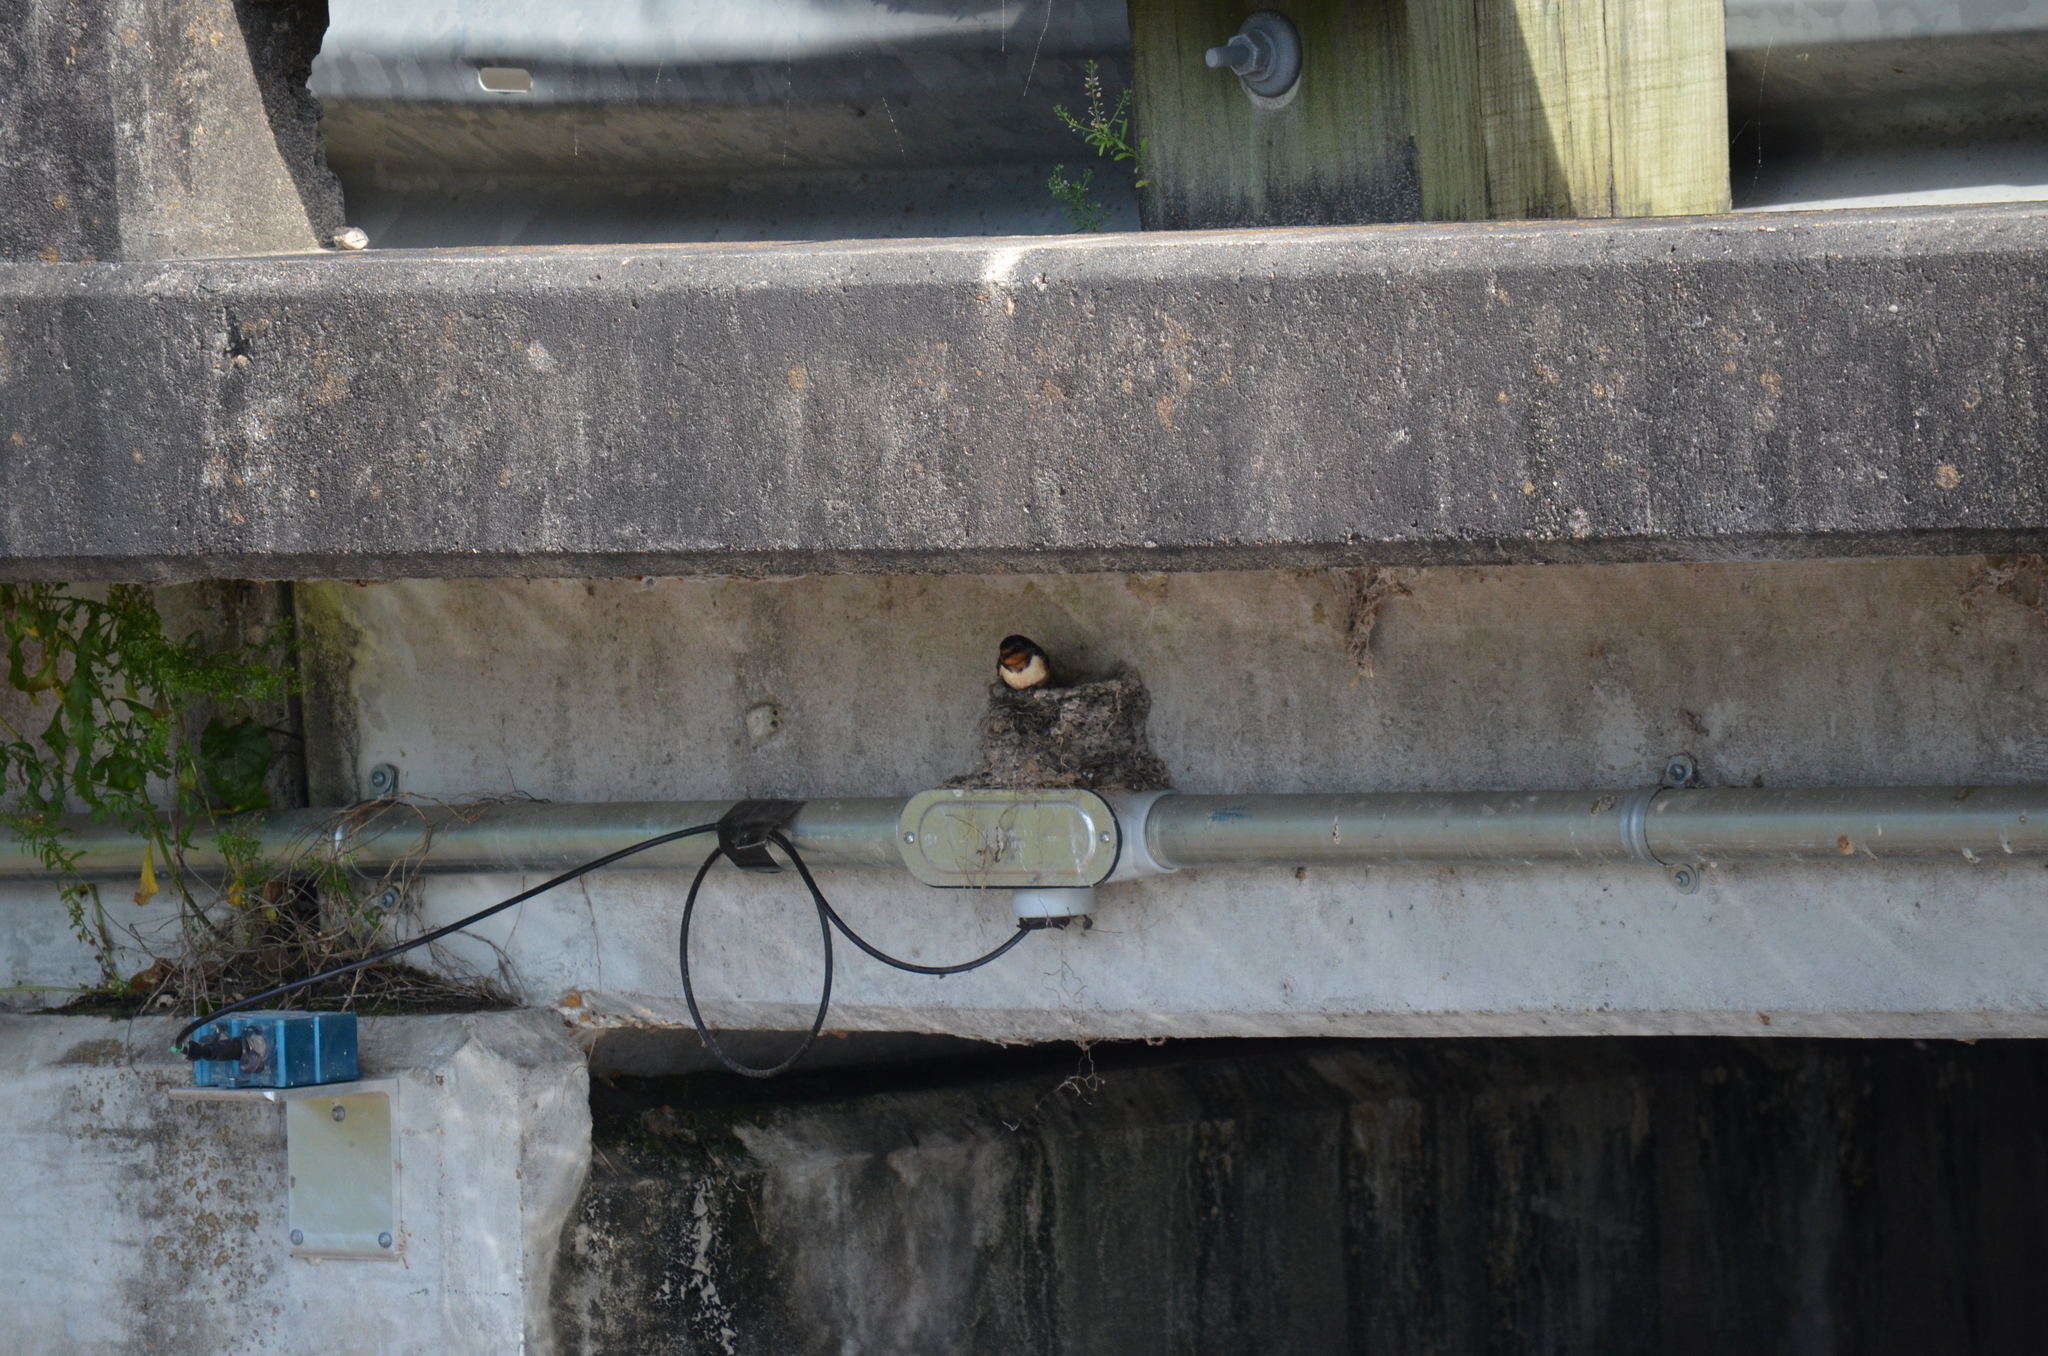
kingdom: Animalia
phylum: Chordata
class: Aves
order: Passeriformes
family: Hirundinidae
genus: Hirundo
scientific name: Hirundo rustica
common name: Barn swallow
